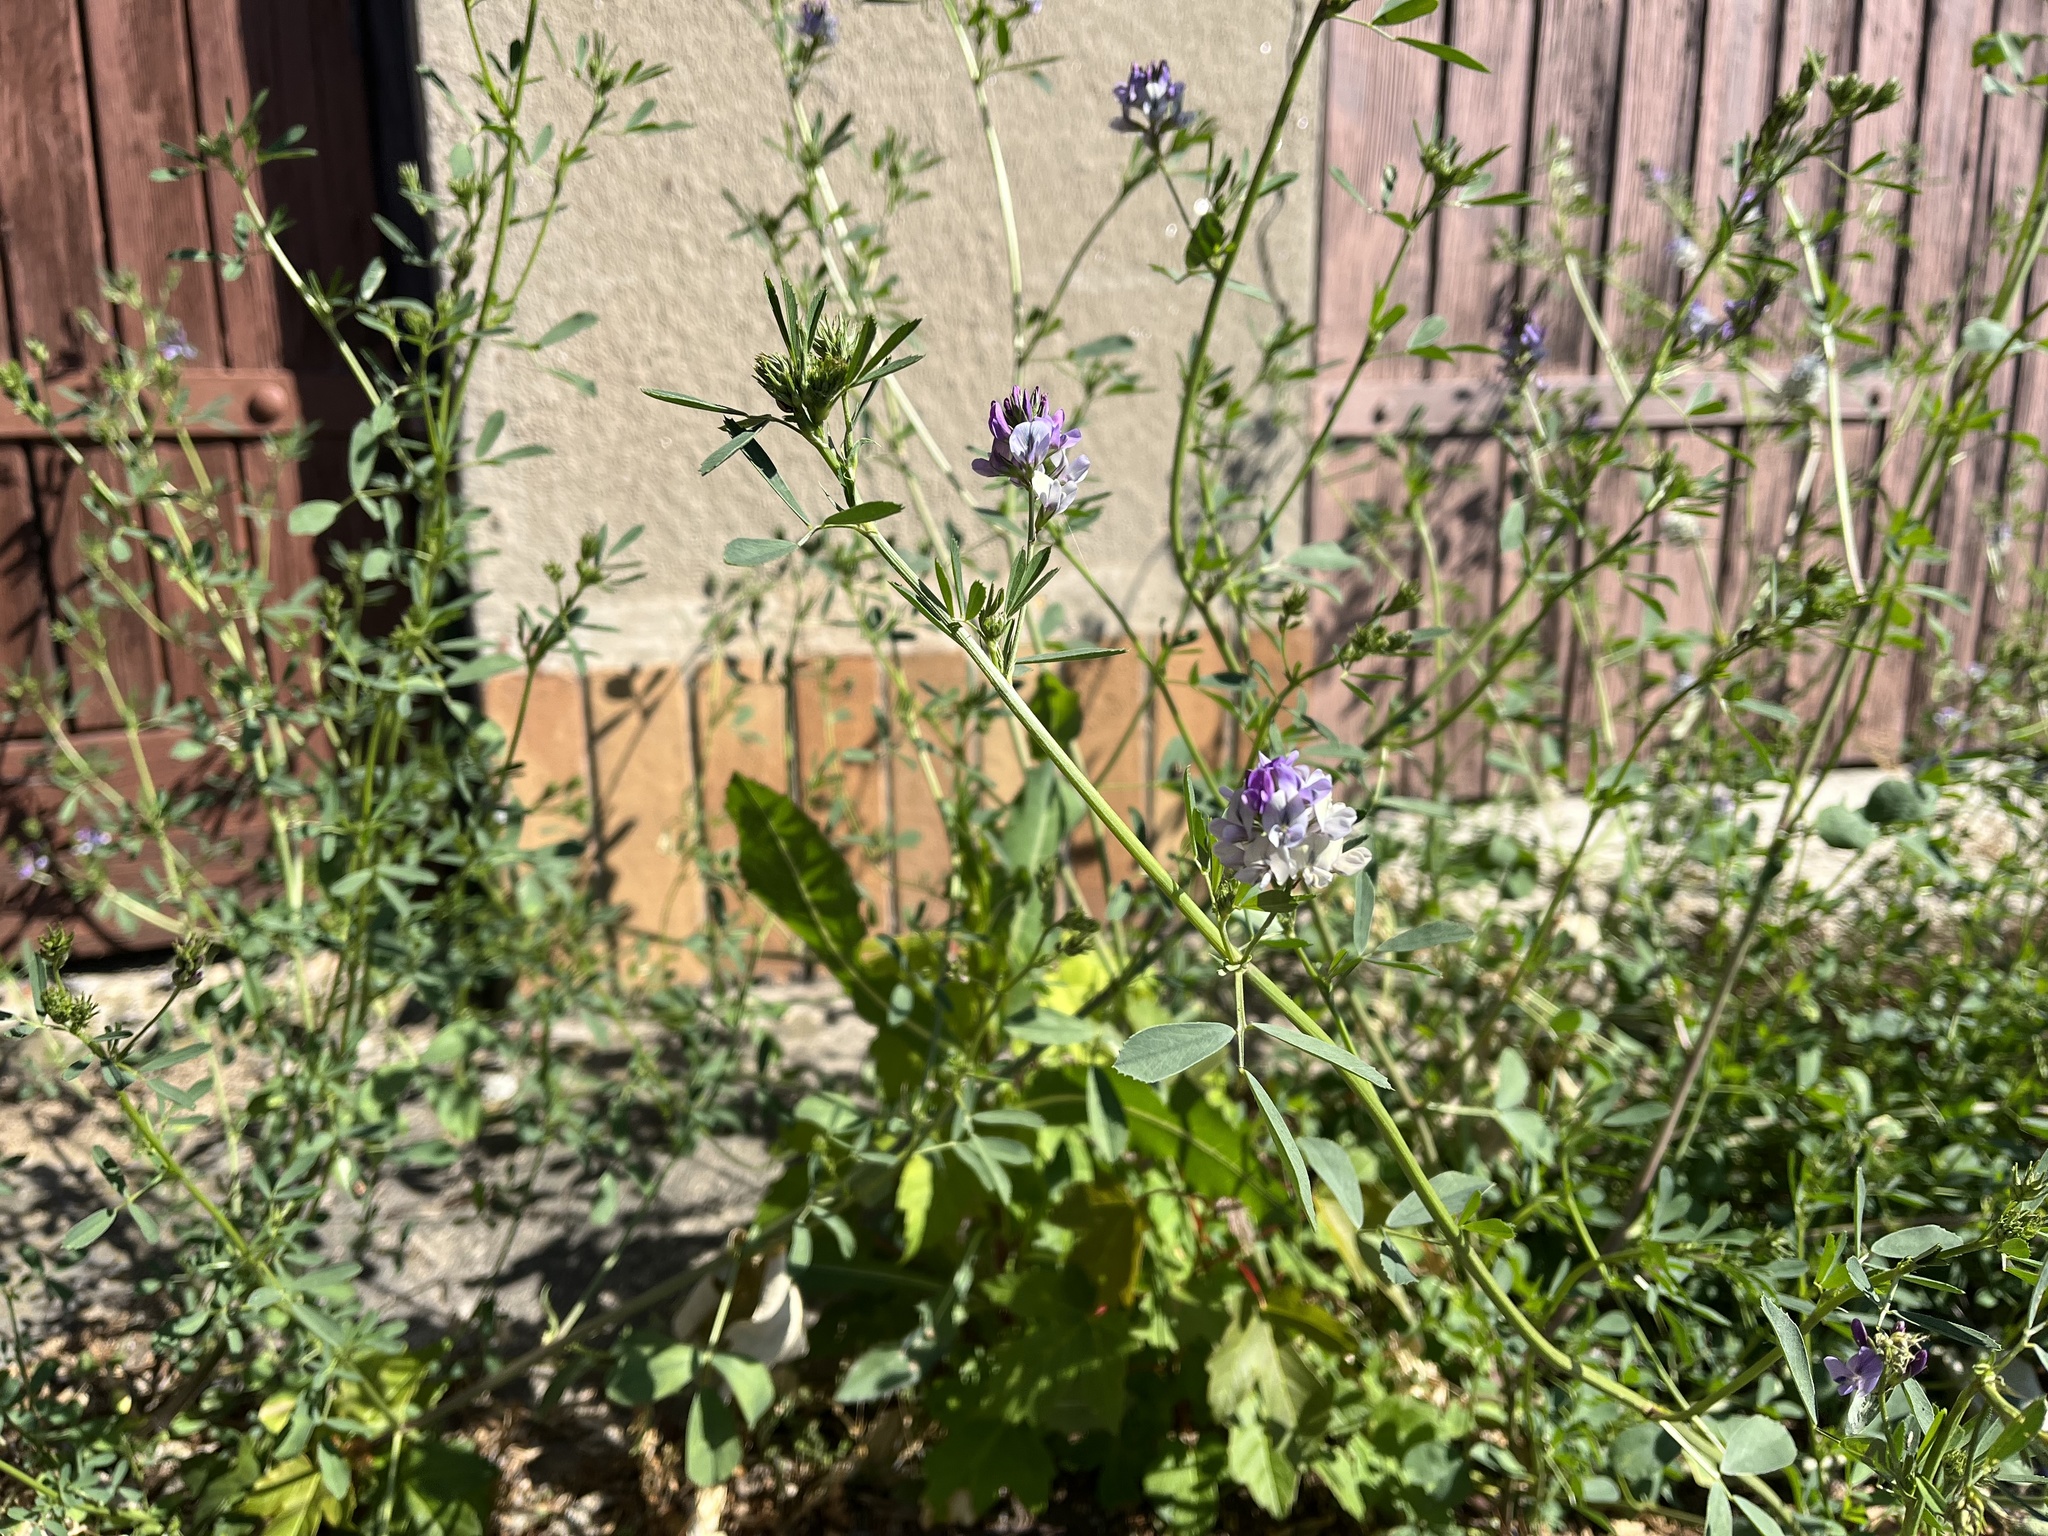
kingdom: Plantae
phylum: Tracheophyta
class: Magnoliopsida
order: Fabales
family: Fabaceae
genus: Medicago
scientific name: Medicago sativa
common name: Alfalfa
